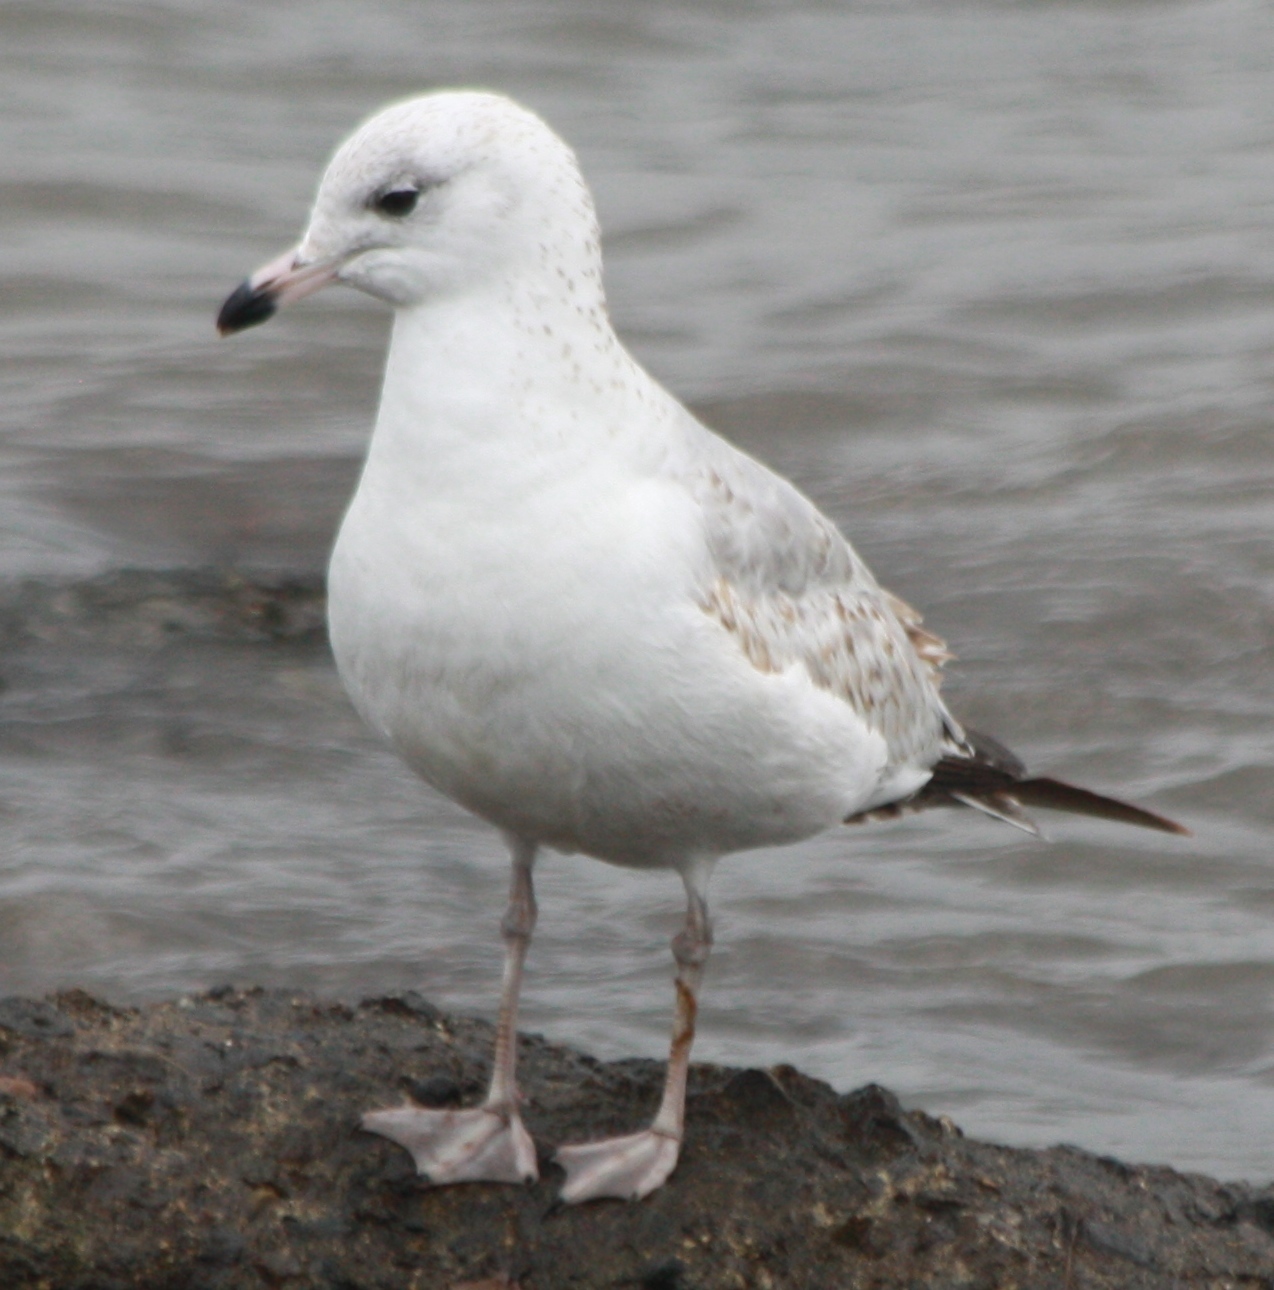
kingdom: Animalia
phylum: Chordata
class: Aves
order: Charadriiformes
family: Laridae
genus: Larus
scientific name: Larus delawarensis
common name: Ring-billed gull
